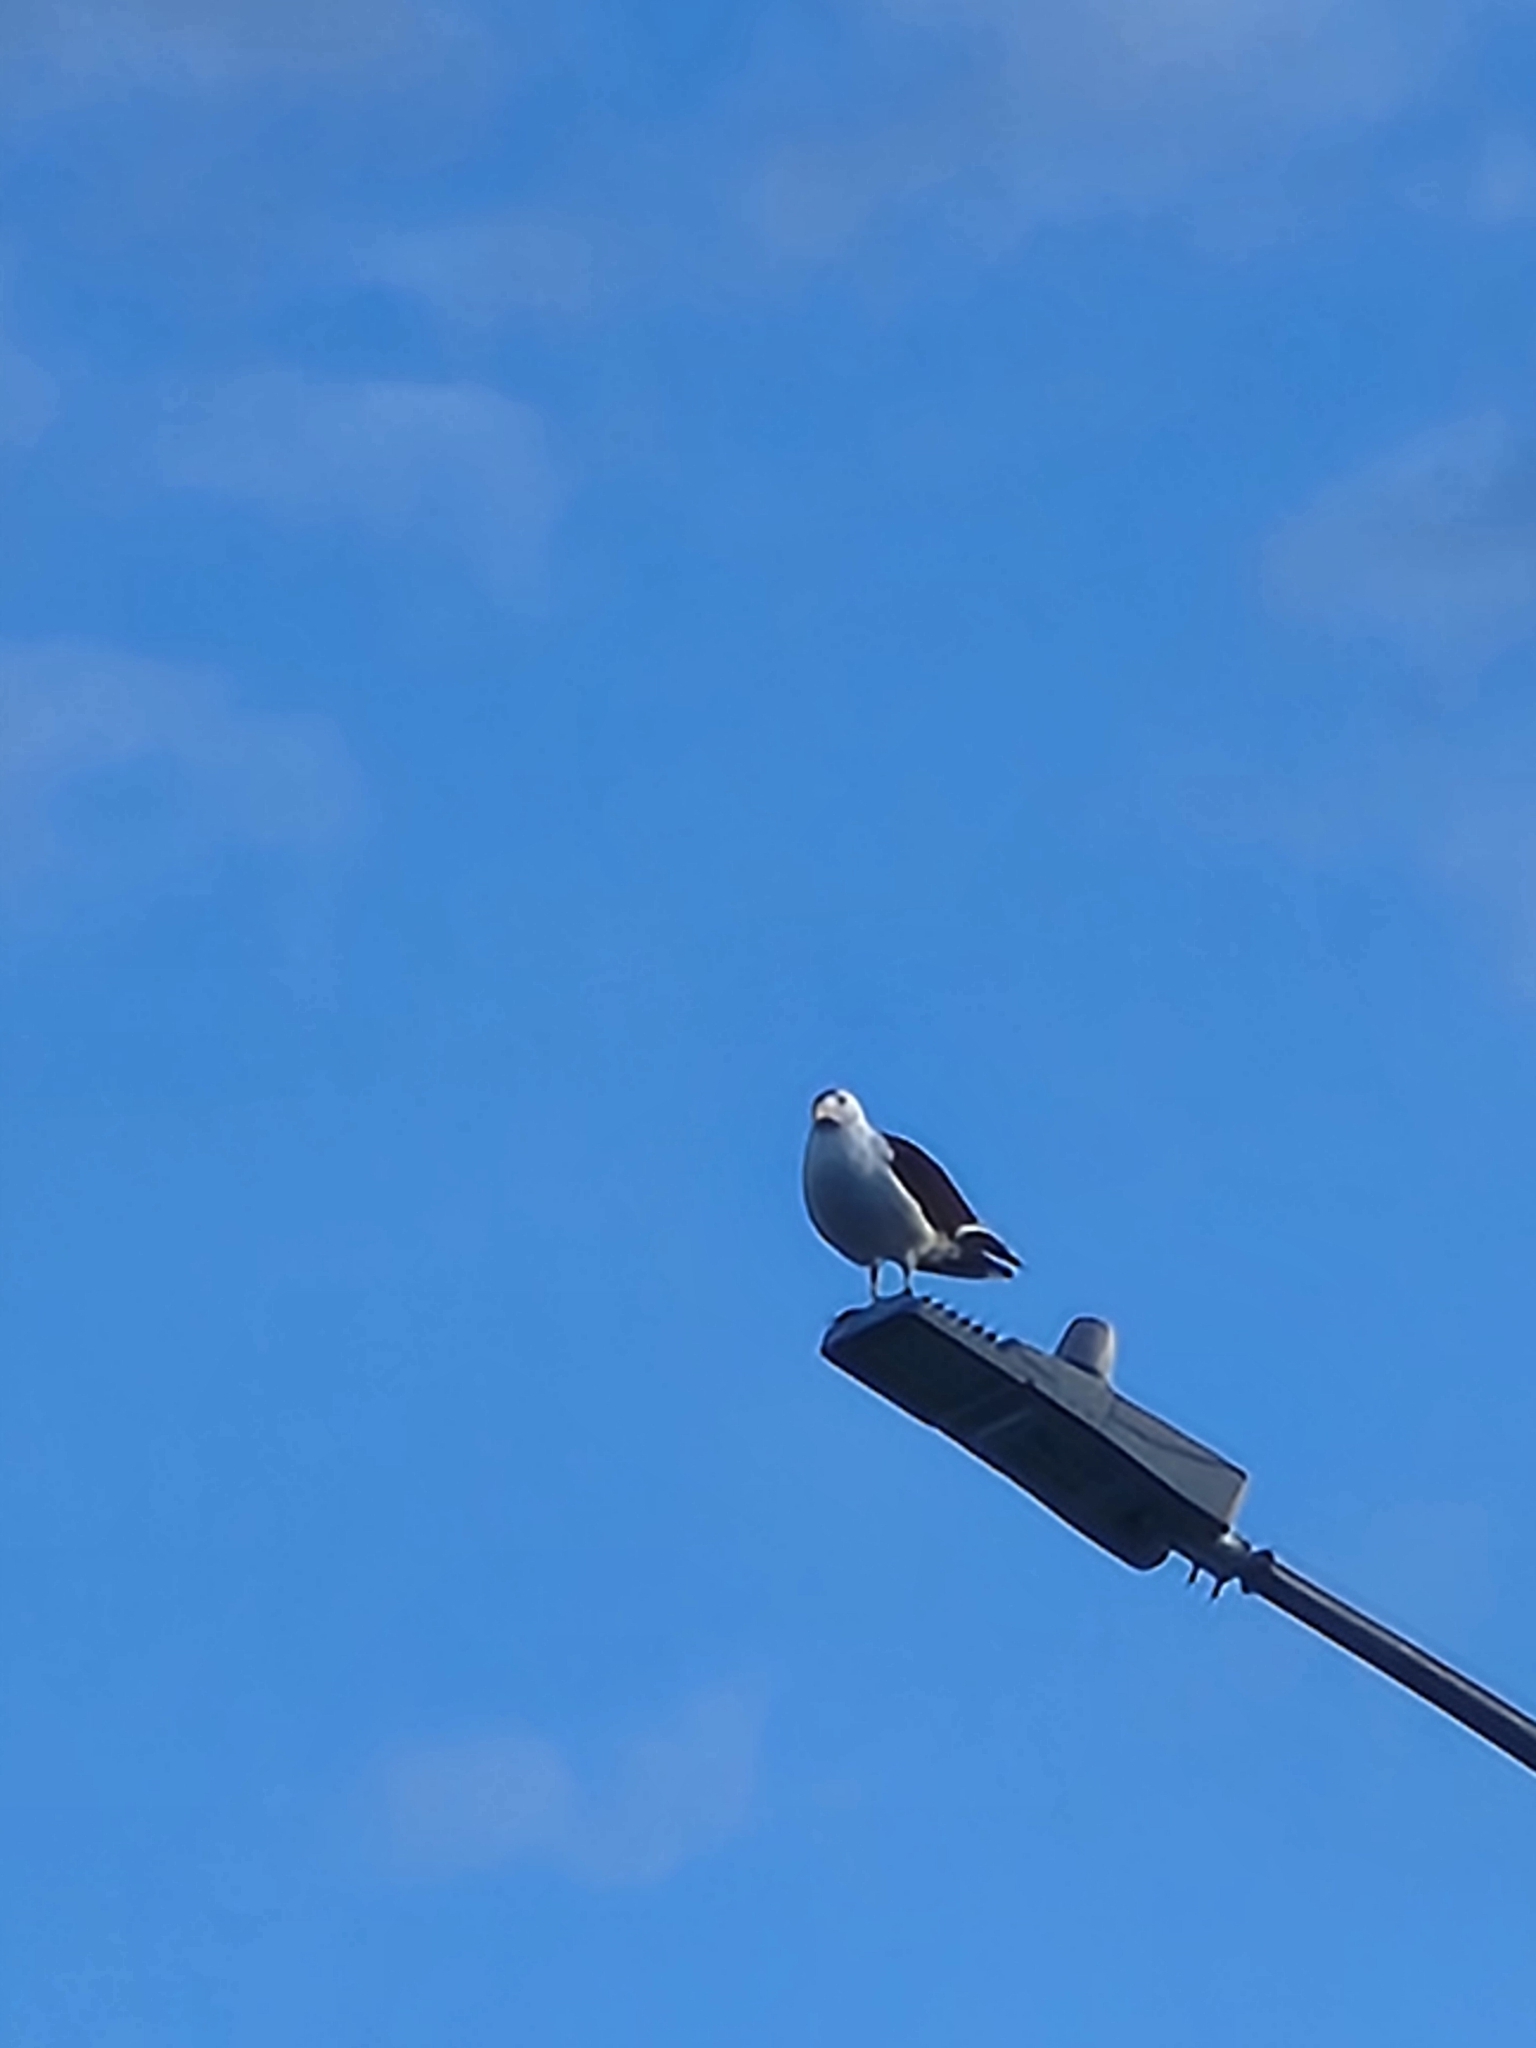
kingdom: Animalia
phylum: Chordata
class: Aves
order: Charadriiformes
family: Laridae
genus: Larus
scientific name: Larus dominicanus
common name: Kelp gull
